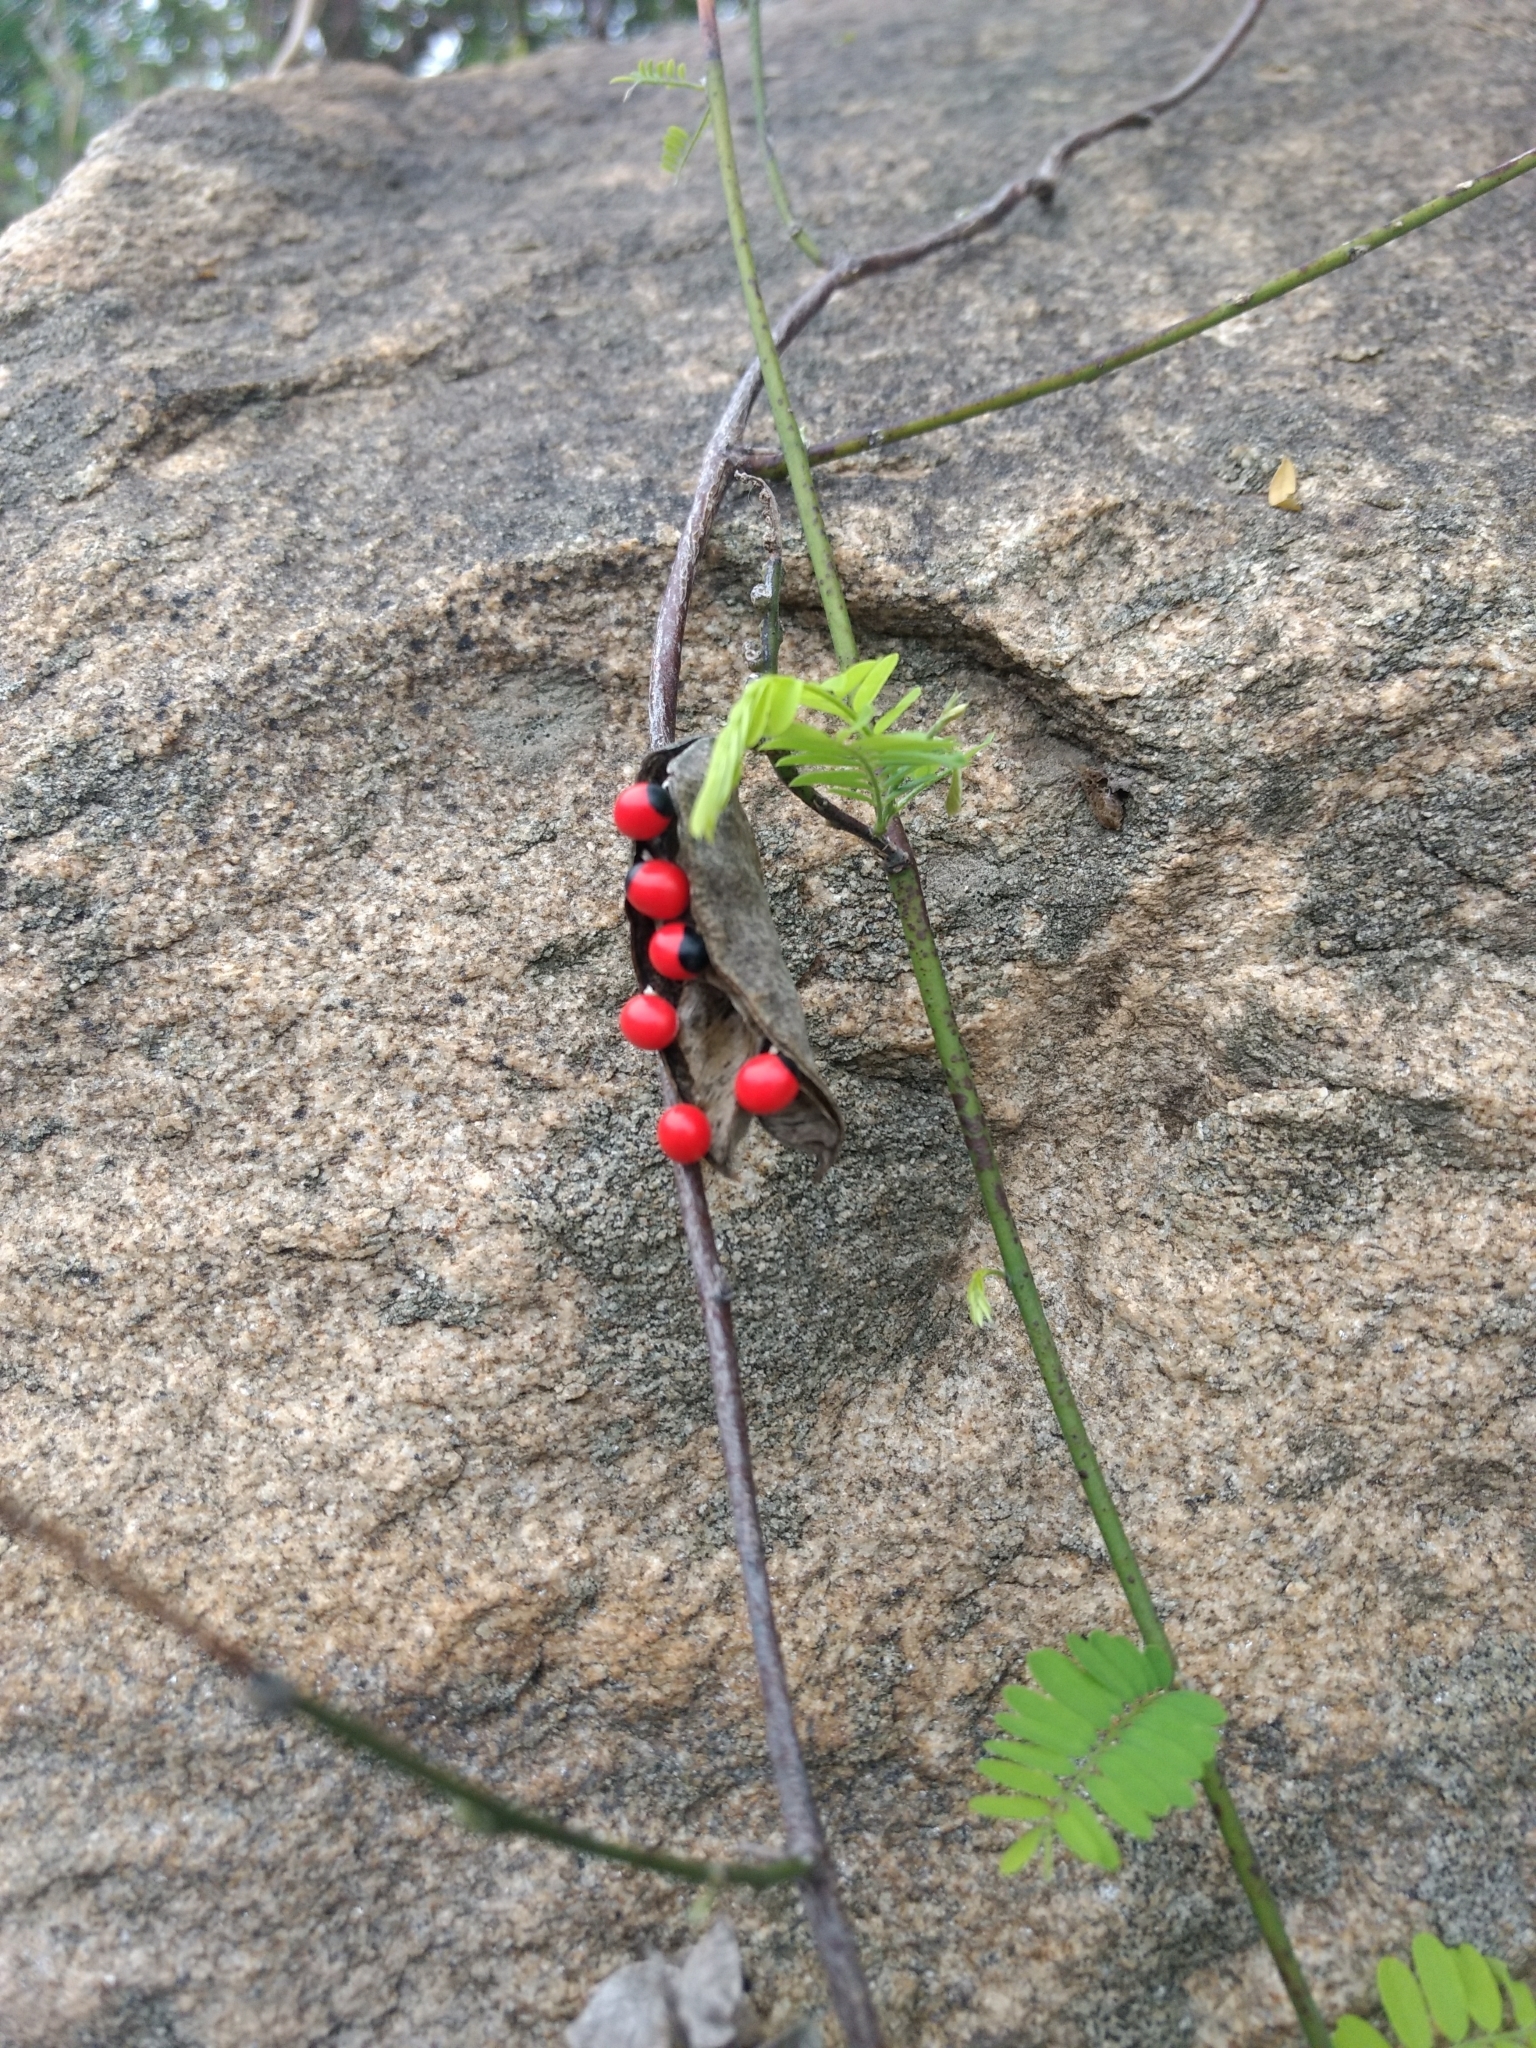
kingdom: Plantae
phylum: Tracheophyta
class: Magnoliopsida
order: Fabales
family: Fabaceae
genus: Abrus
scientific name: Abrus precatorius
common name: Rosarypea
